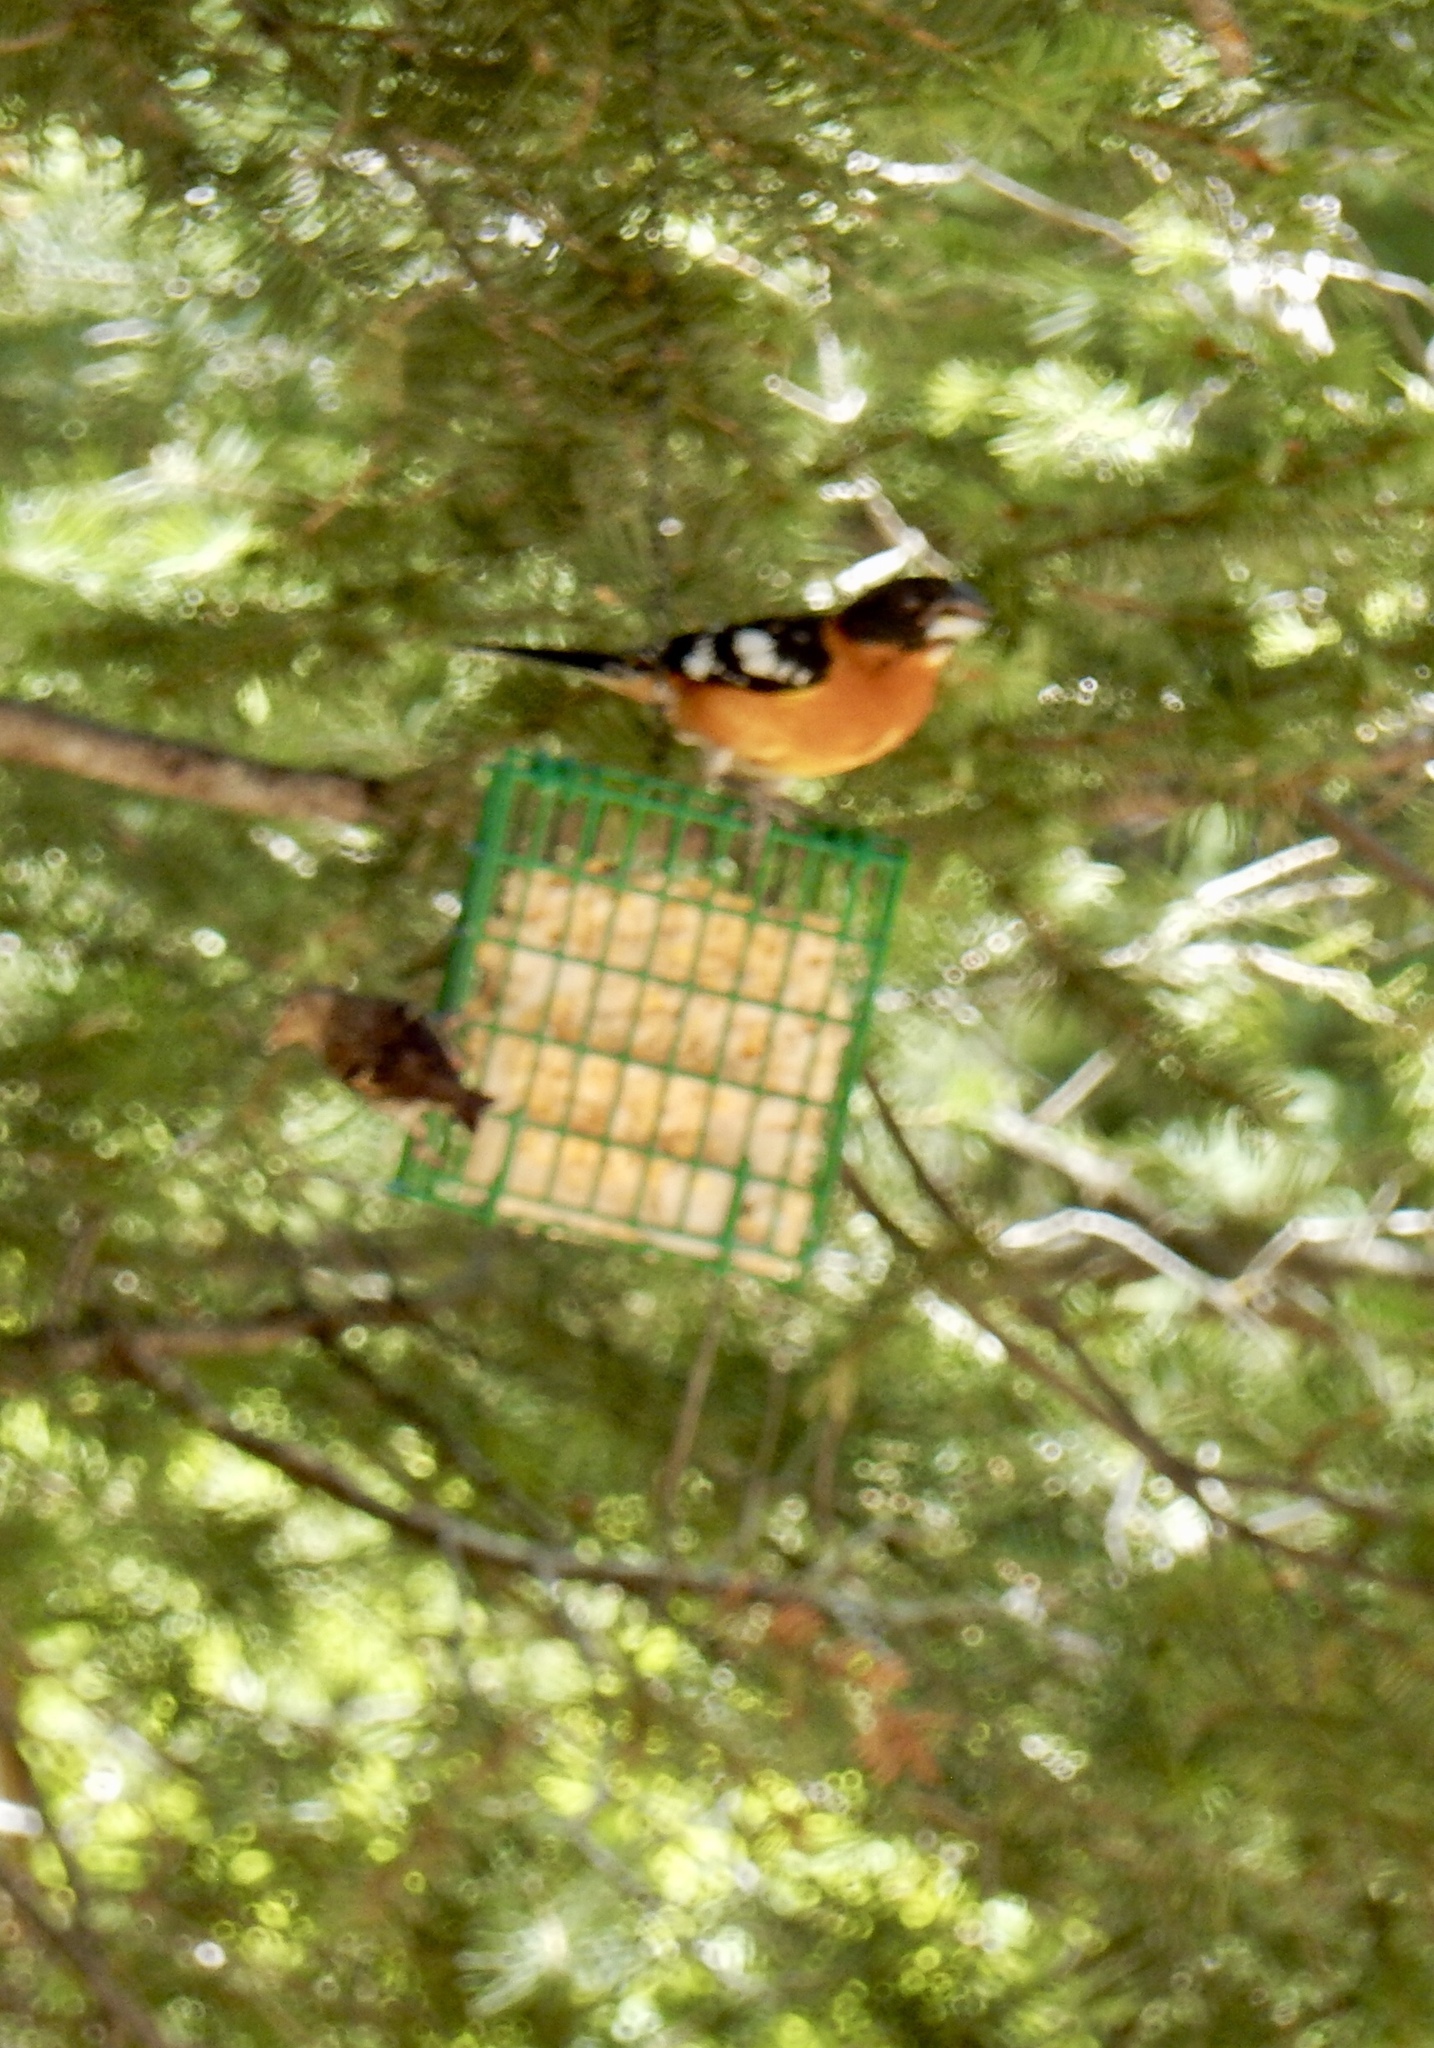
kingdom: Animalia
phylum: Chordata
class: Aves
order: Passeriformes
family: Cardinalidae
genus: Pheucticus
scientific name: Pheucticus melanocephalus
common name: Black-headed grosbeak
